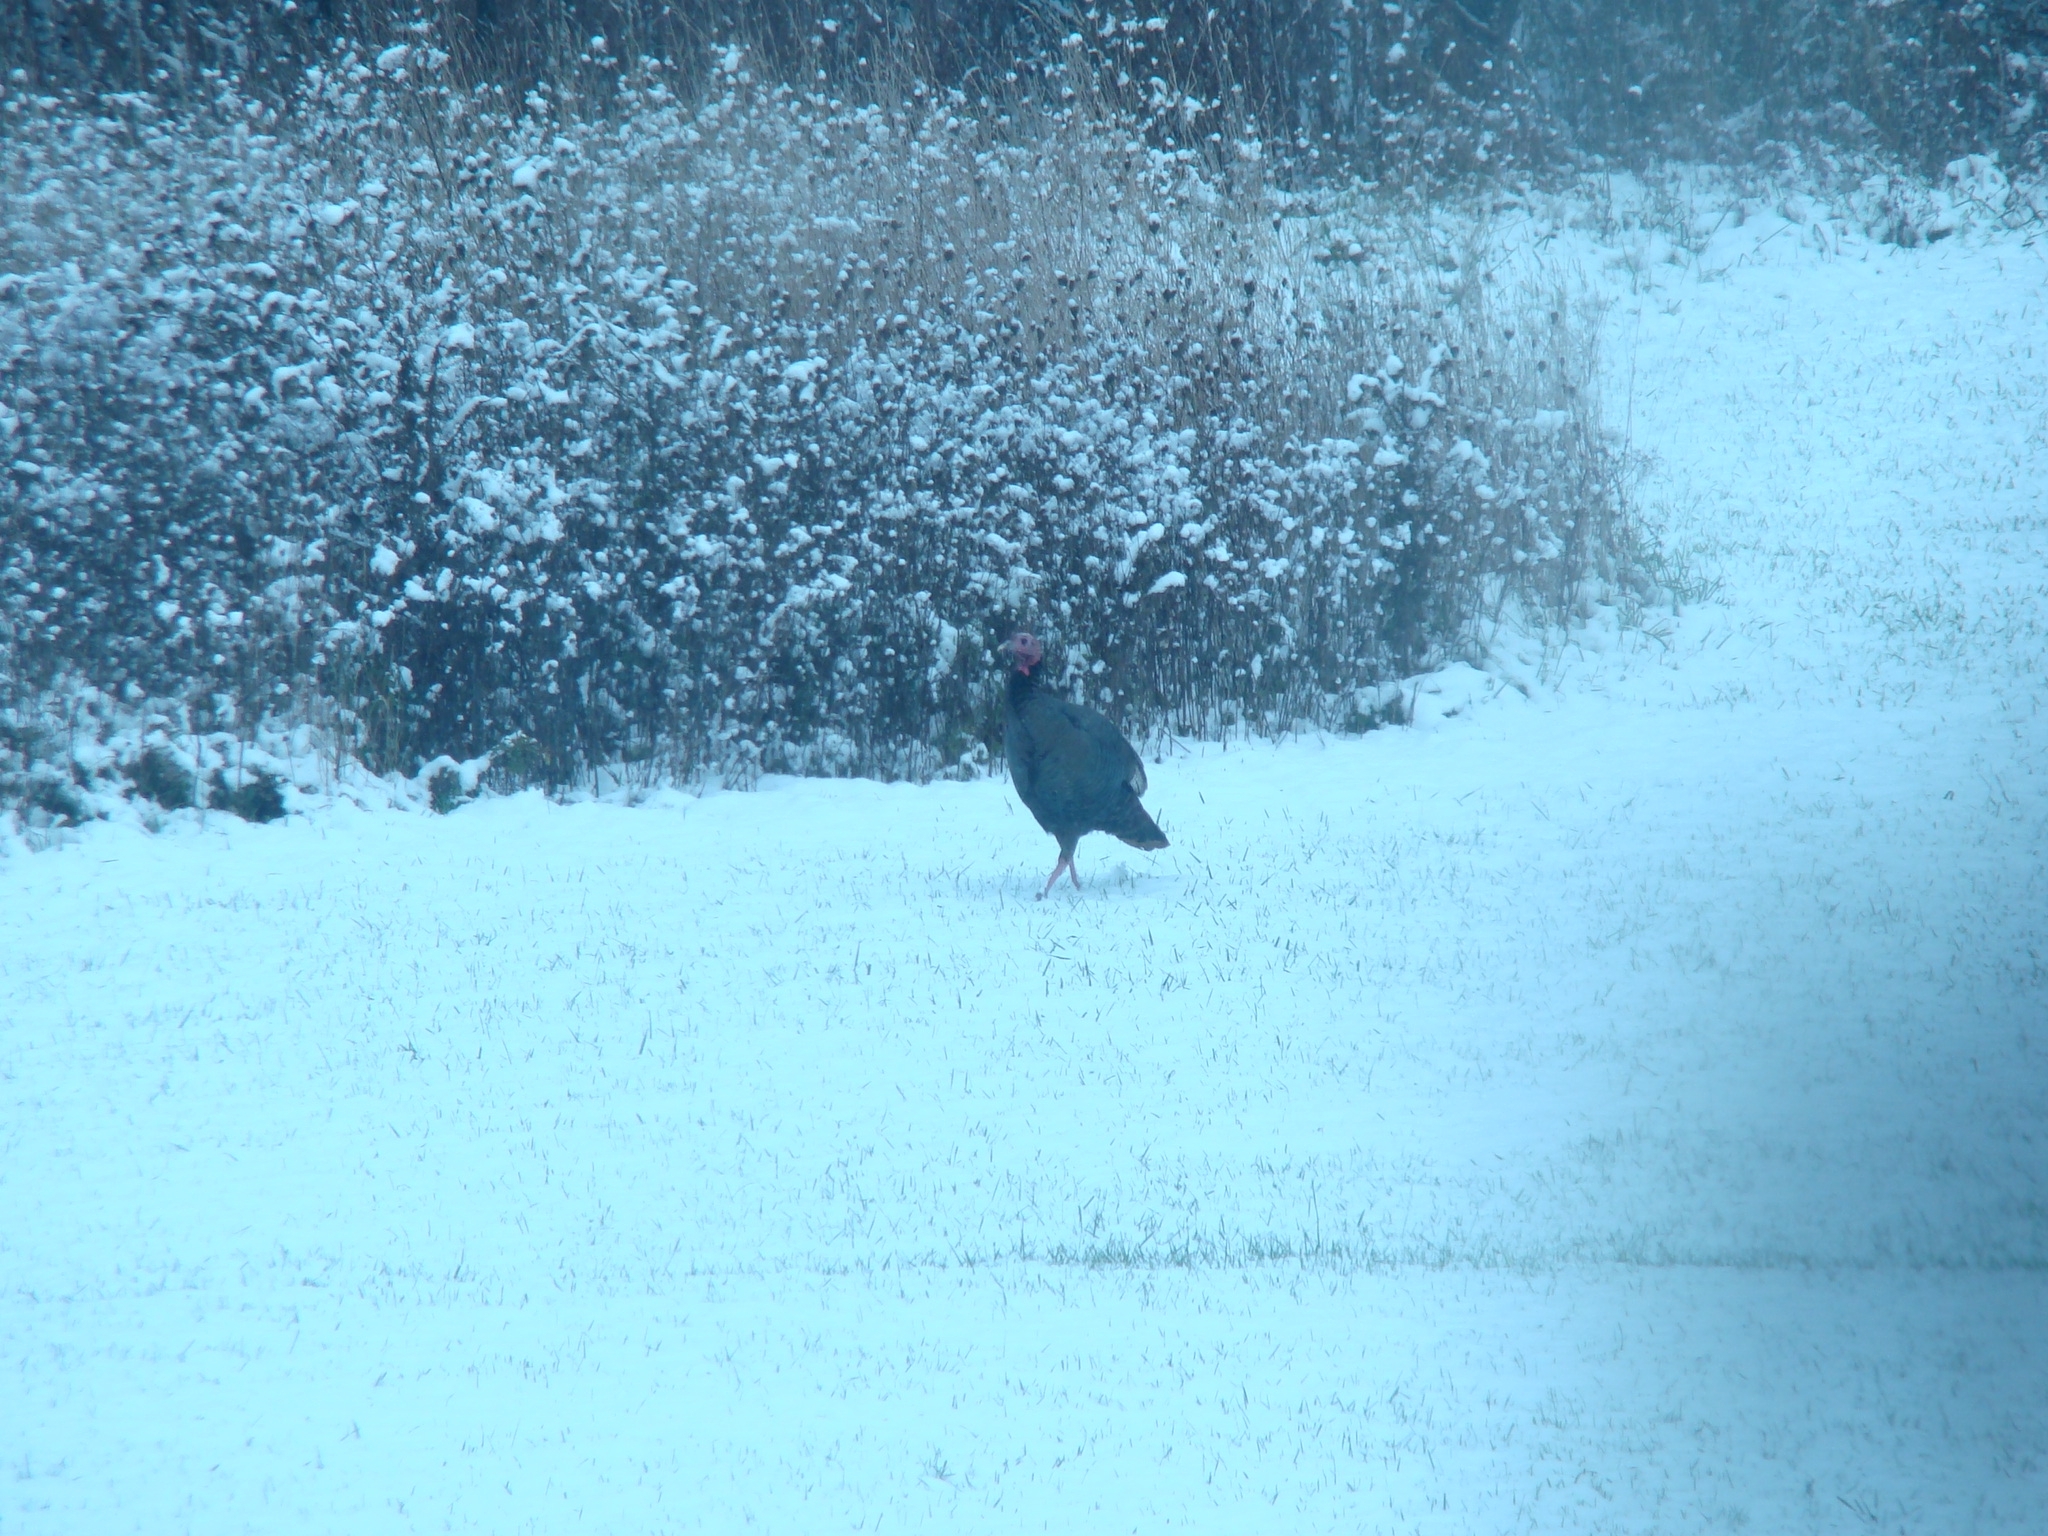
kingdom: Animalia
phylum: Chordata
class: Aves
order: Galliformes
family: Phasianidae
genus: Meleagris
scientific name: Meleagris gallopavo
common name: Wild turkey
